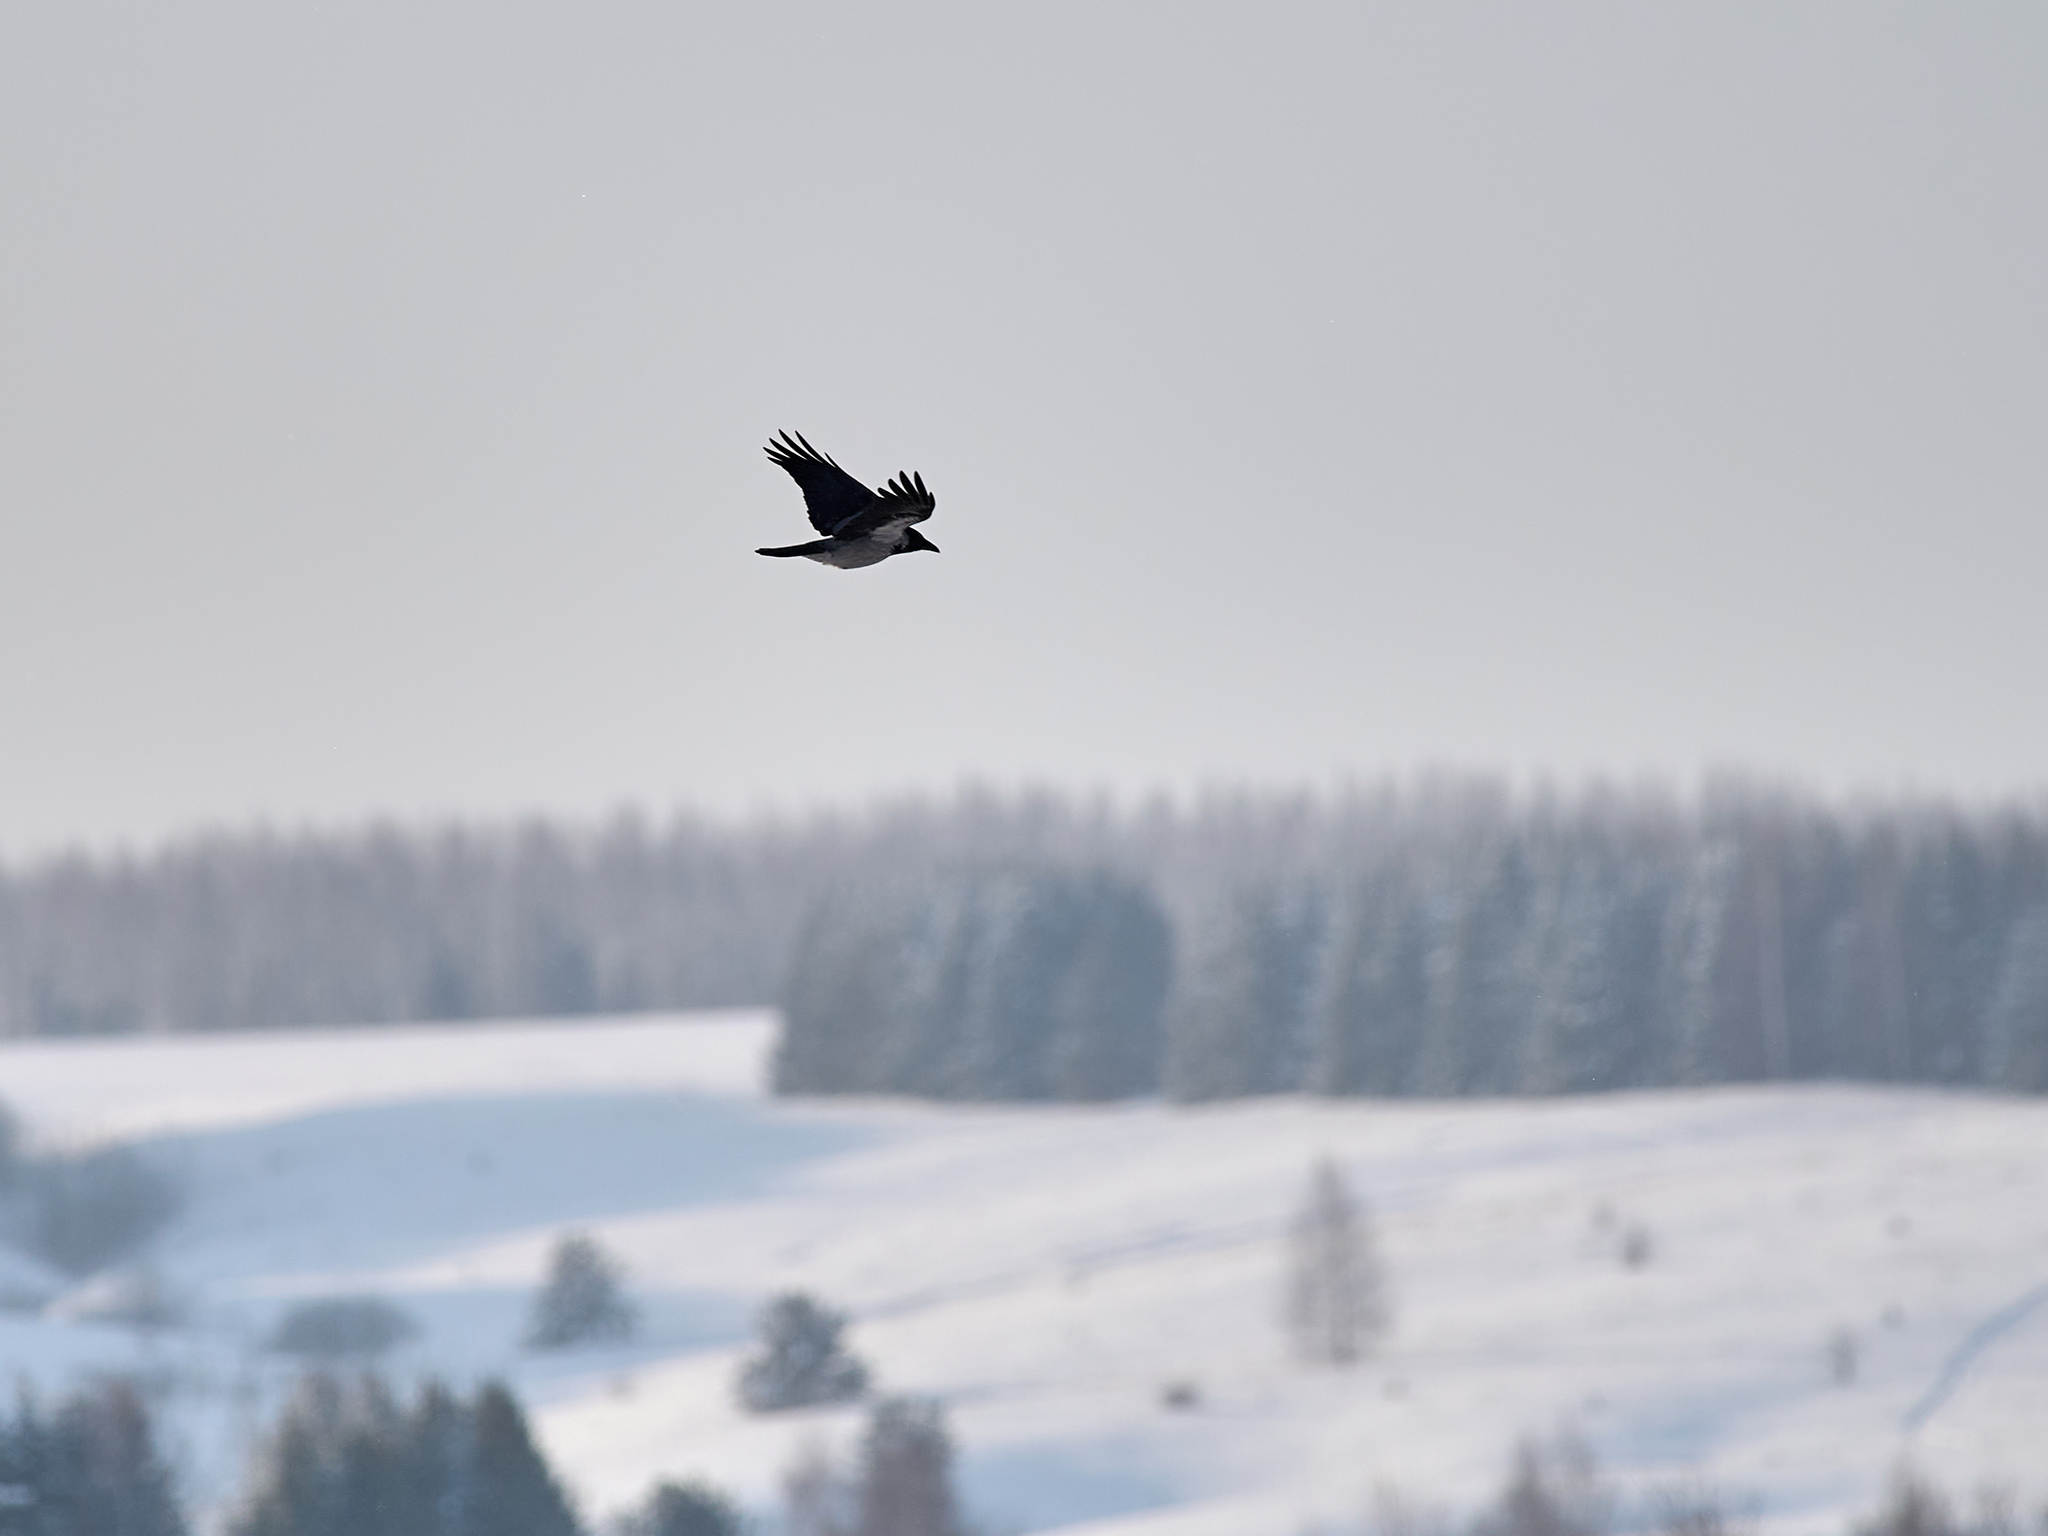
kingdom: Animalia
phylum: Chordata
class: Aves
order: Passeriformes
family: Corvidae
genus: Corvus
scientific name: Corvus cornix
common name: Hooded crow
